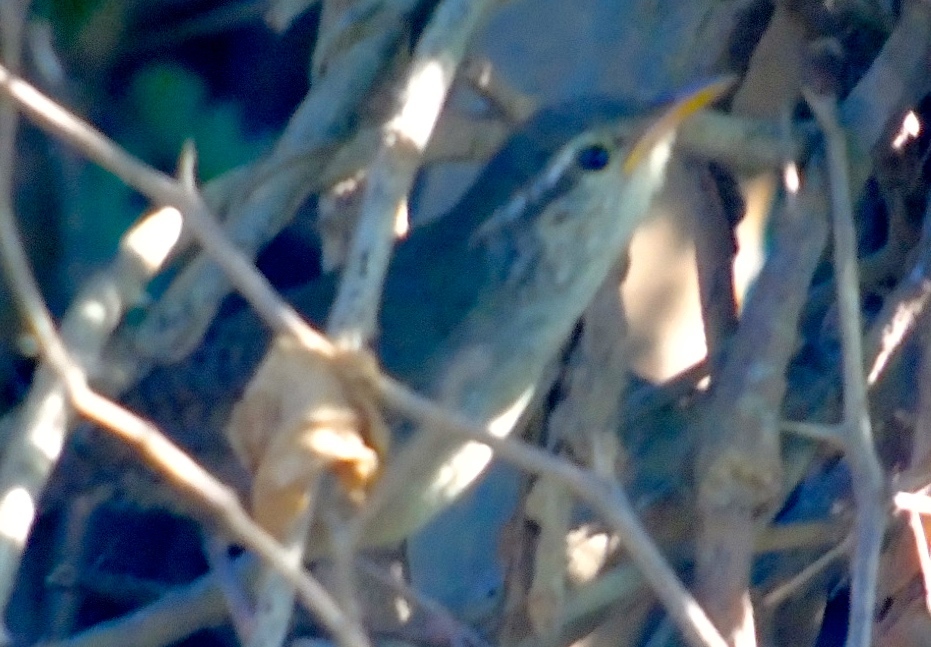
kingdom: Animalia
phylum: Chordata
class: Aves
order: Passeriformes
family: Troglodytidae
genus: Thryophilus
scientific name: Thryophilus sinaloa
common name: Sinaloa wren
